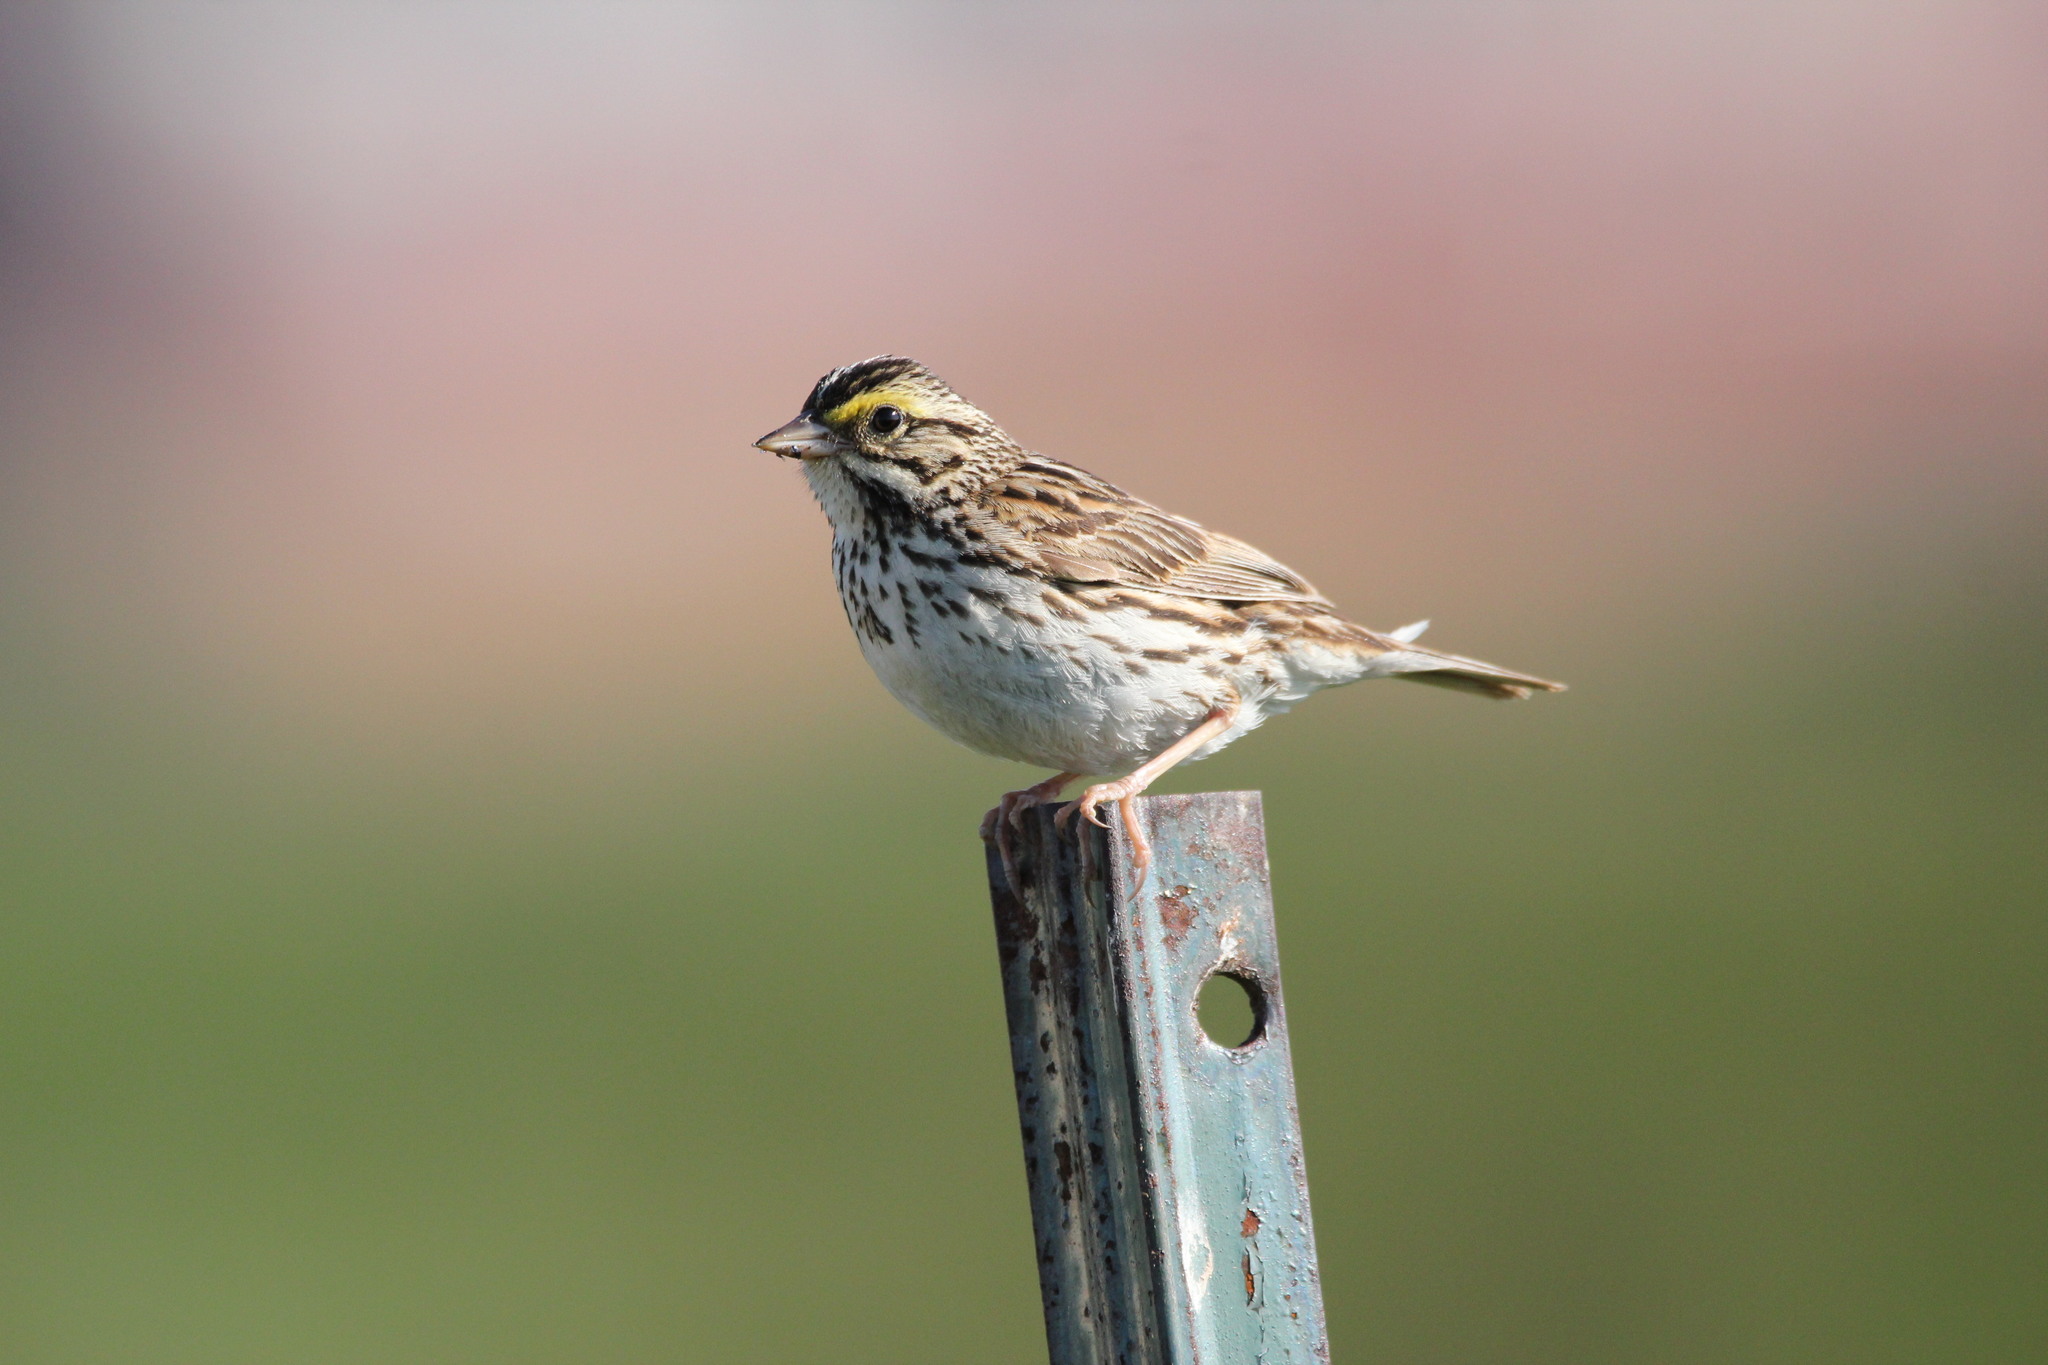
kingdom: Animalia
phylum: Chordata
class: Aves
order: Passeriformes
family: Passerellidae
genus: Passerculus
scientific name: Passerculus sandwichensis
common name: Savannah sparrow
